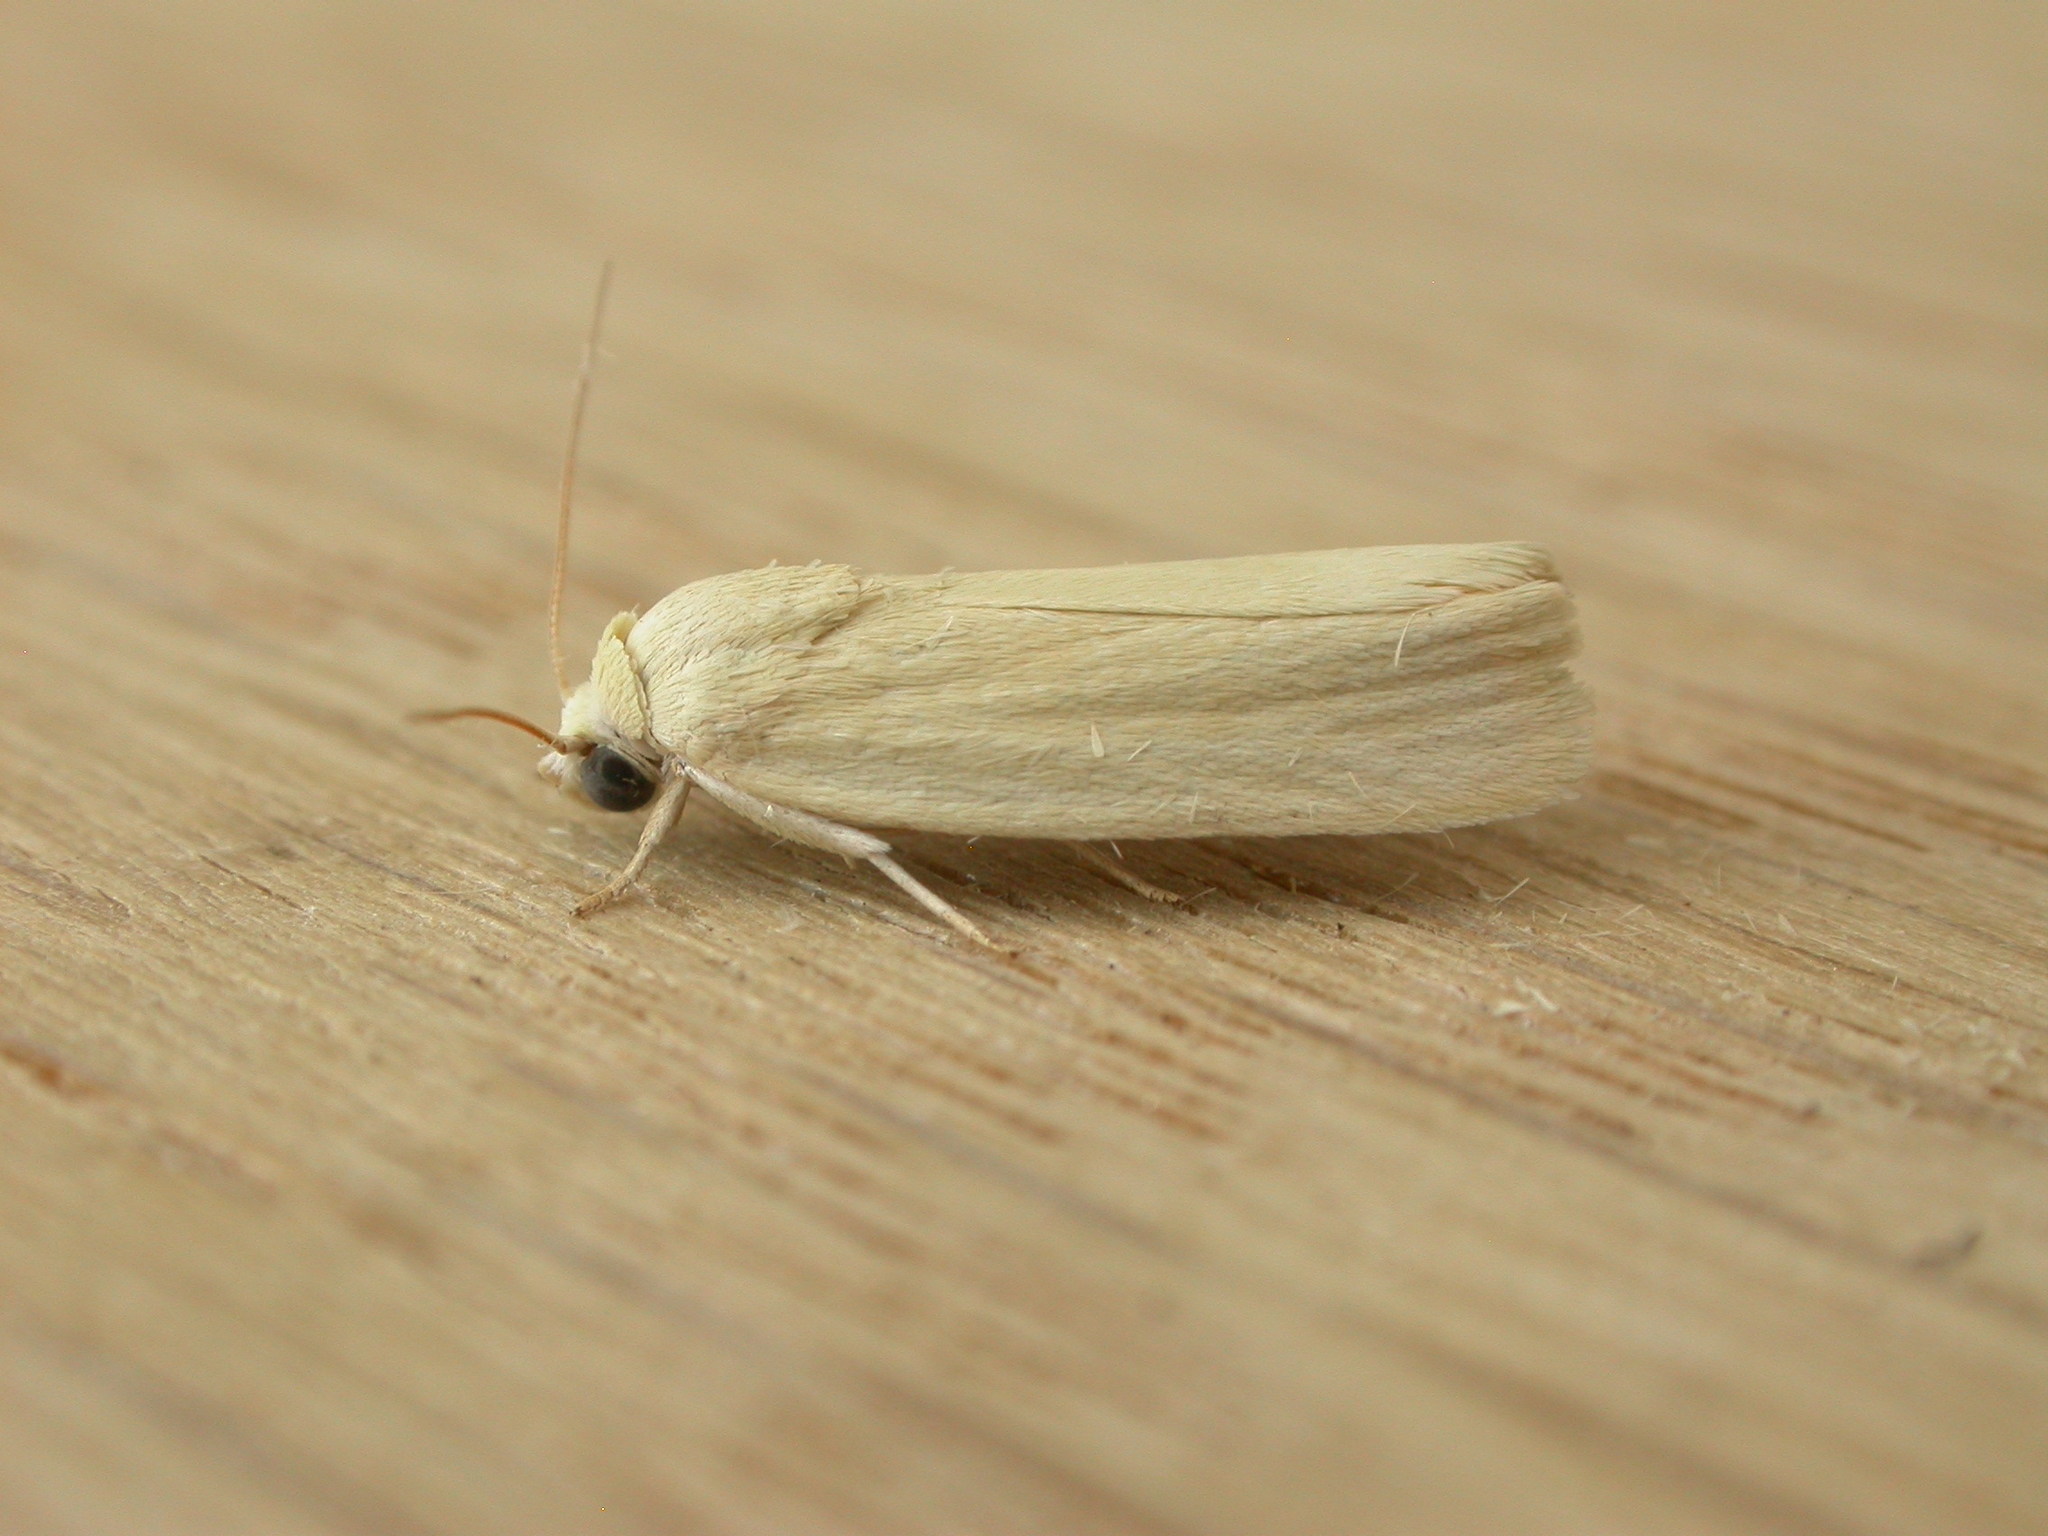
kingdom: Animalia
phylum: Arthropoda
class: Insecta
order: Lepidoptera
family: Nolidae
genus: Earias
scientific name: Earias chlorodes
